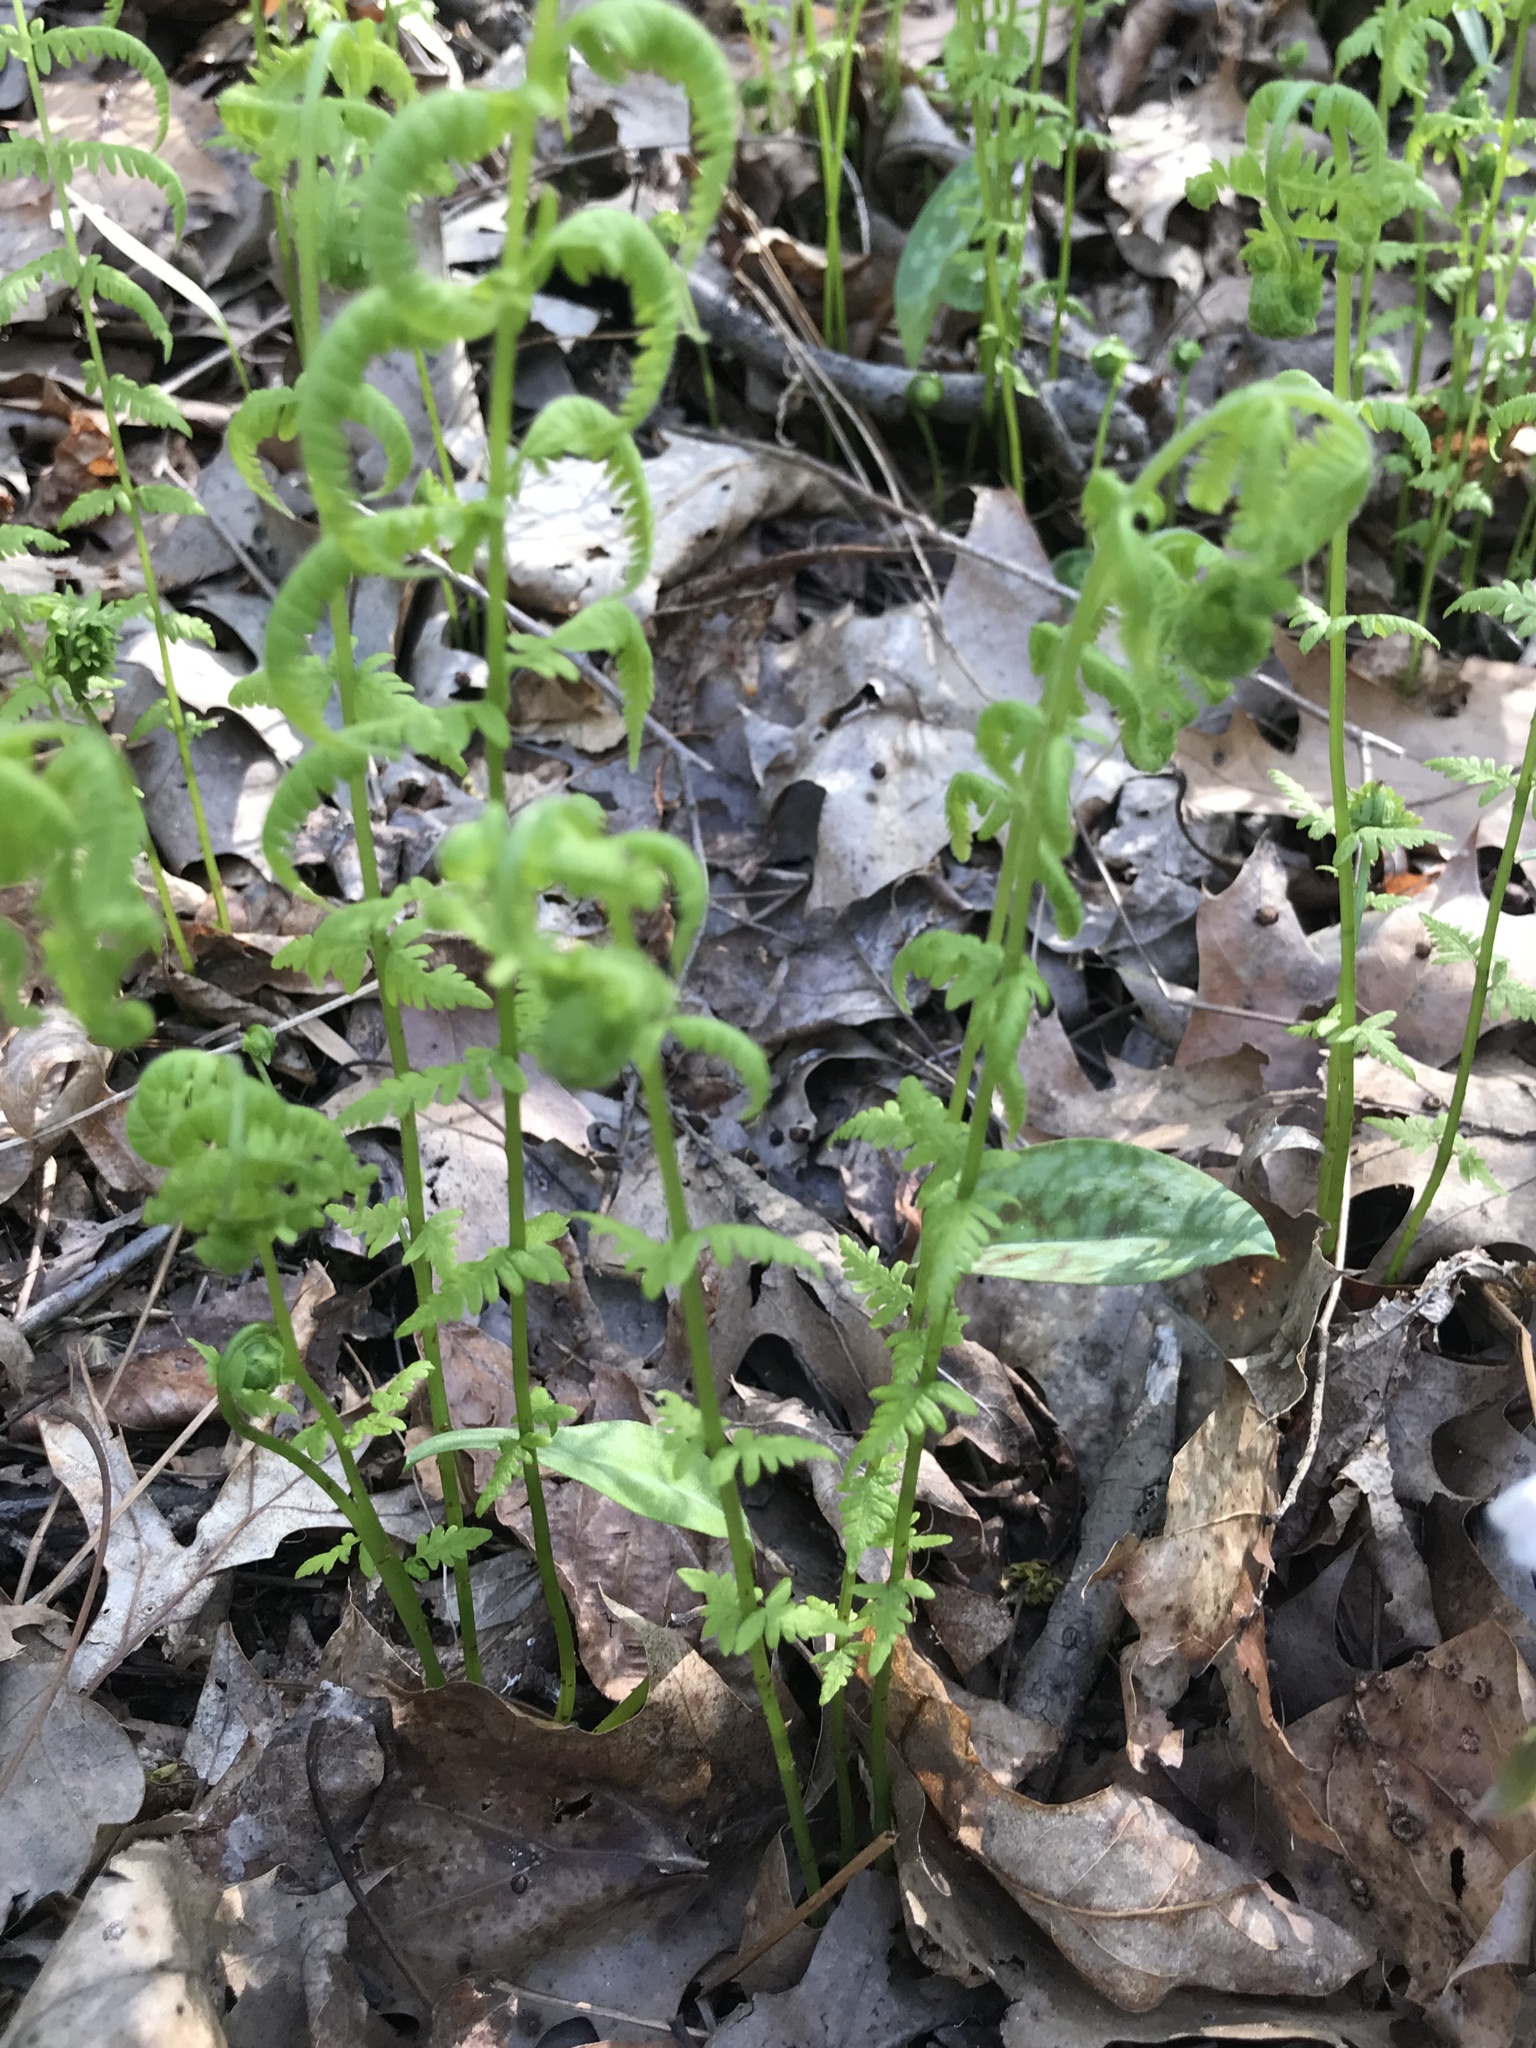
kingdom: Plantae
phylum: Tracheophyta
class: Polypodiopsida
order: Polypodiales
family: Thelypteridaceae
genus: Amauropelta
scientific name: Amauropelta noveboracensis
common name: New york fern
